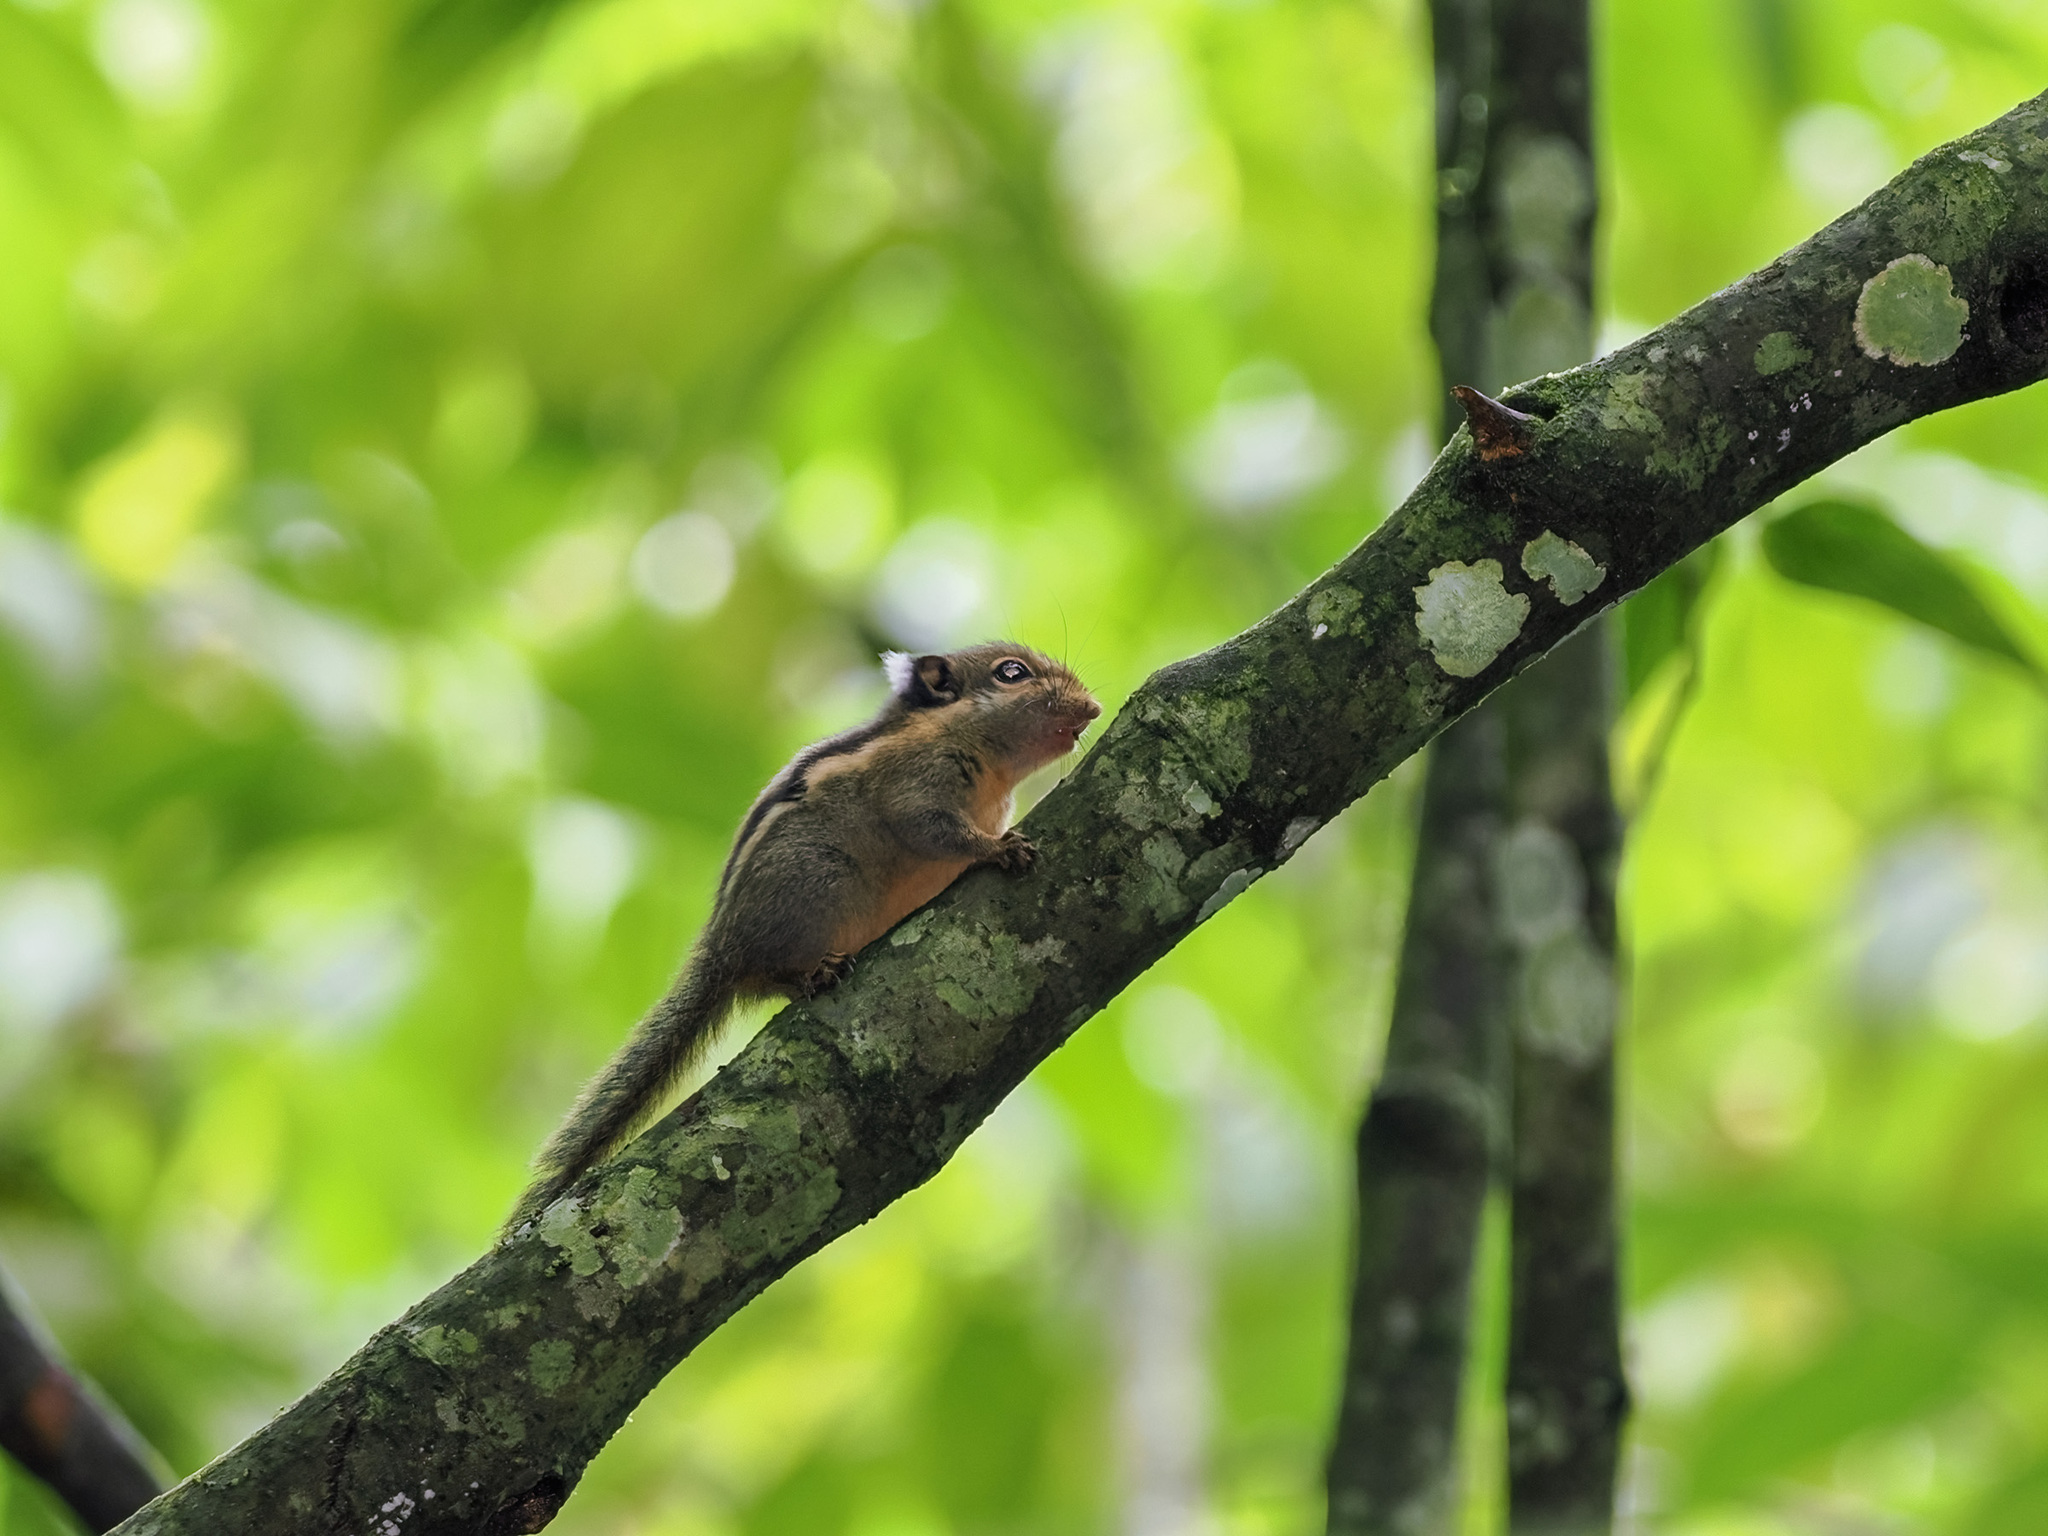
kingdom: Animalia
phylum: Chordata
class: Mammalia
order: Rodentia
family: Sciuridae
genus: Tamiops
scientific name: Tamiops mcclellandii
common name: Himalayan striped squirrel
